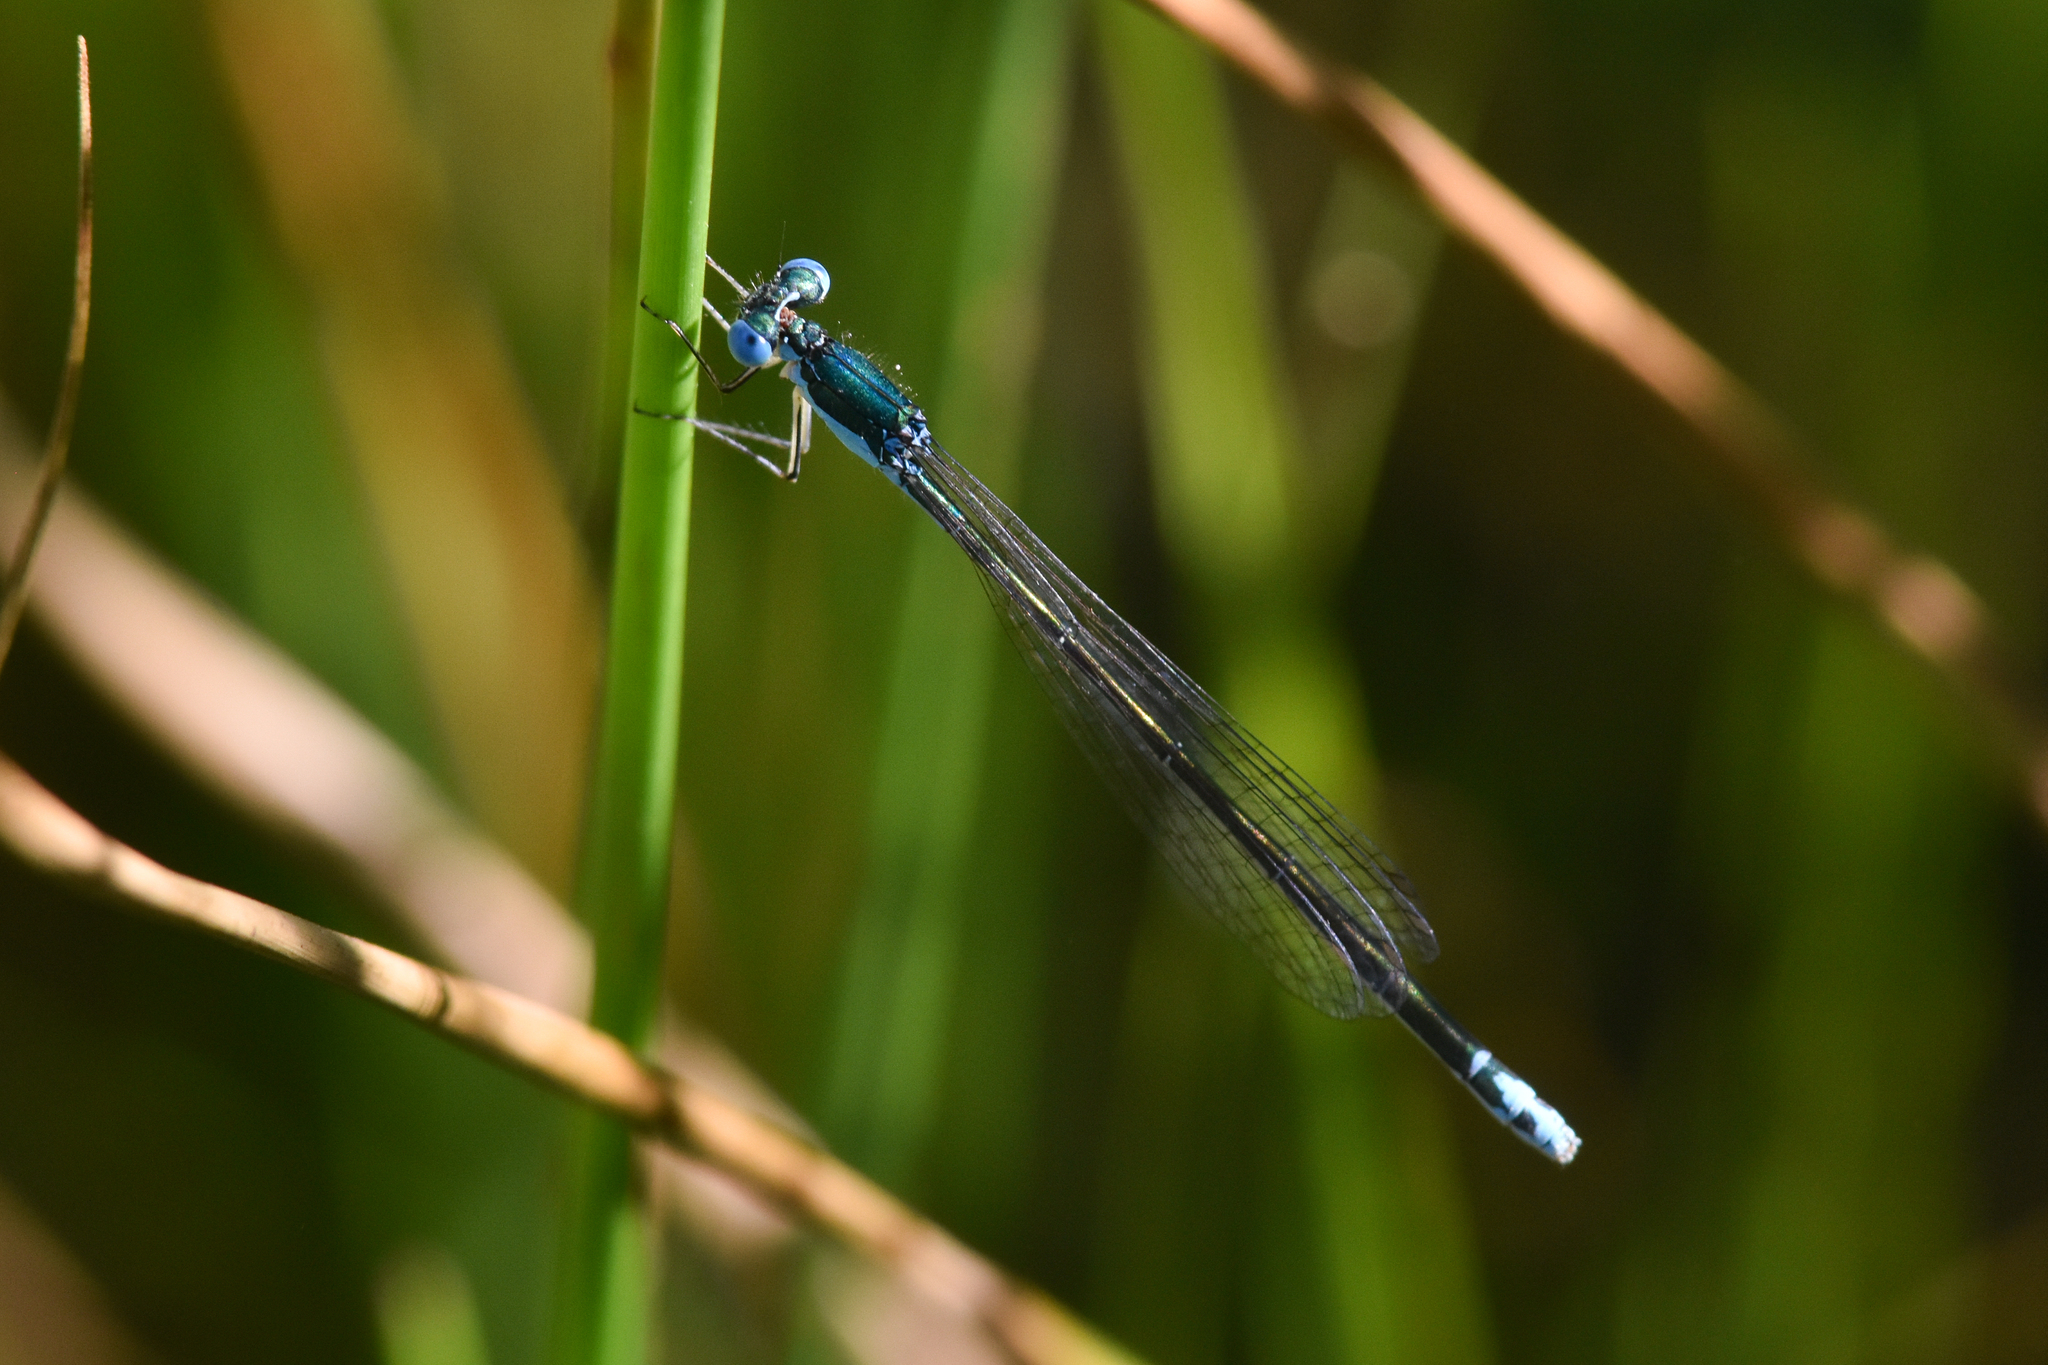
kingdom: Animalia
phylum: Arthropoda
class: Insecta
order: Odonata
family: Coenagrionidae
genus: Nehalennia
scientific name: Nehalennia irene
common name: Sedge sprite
